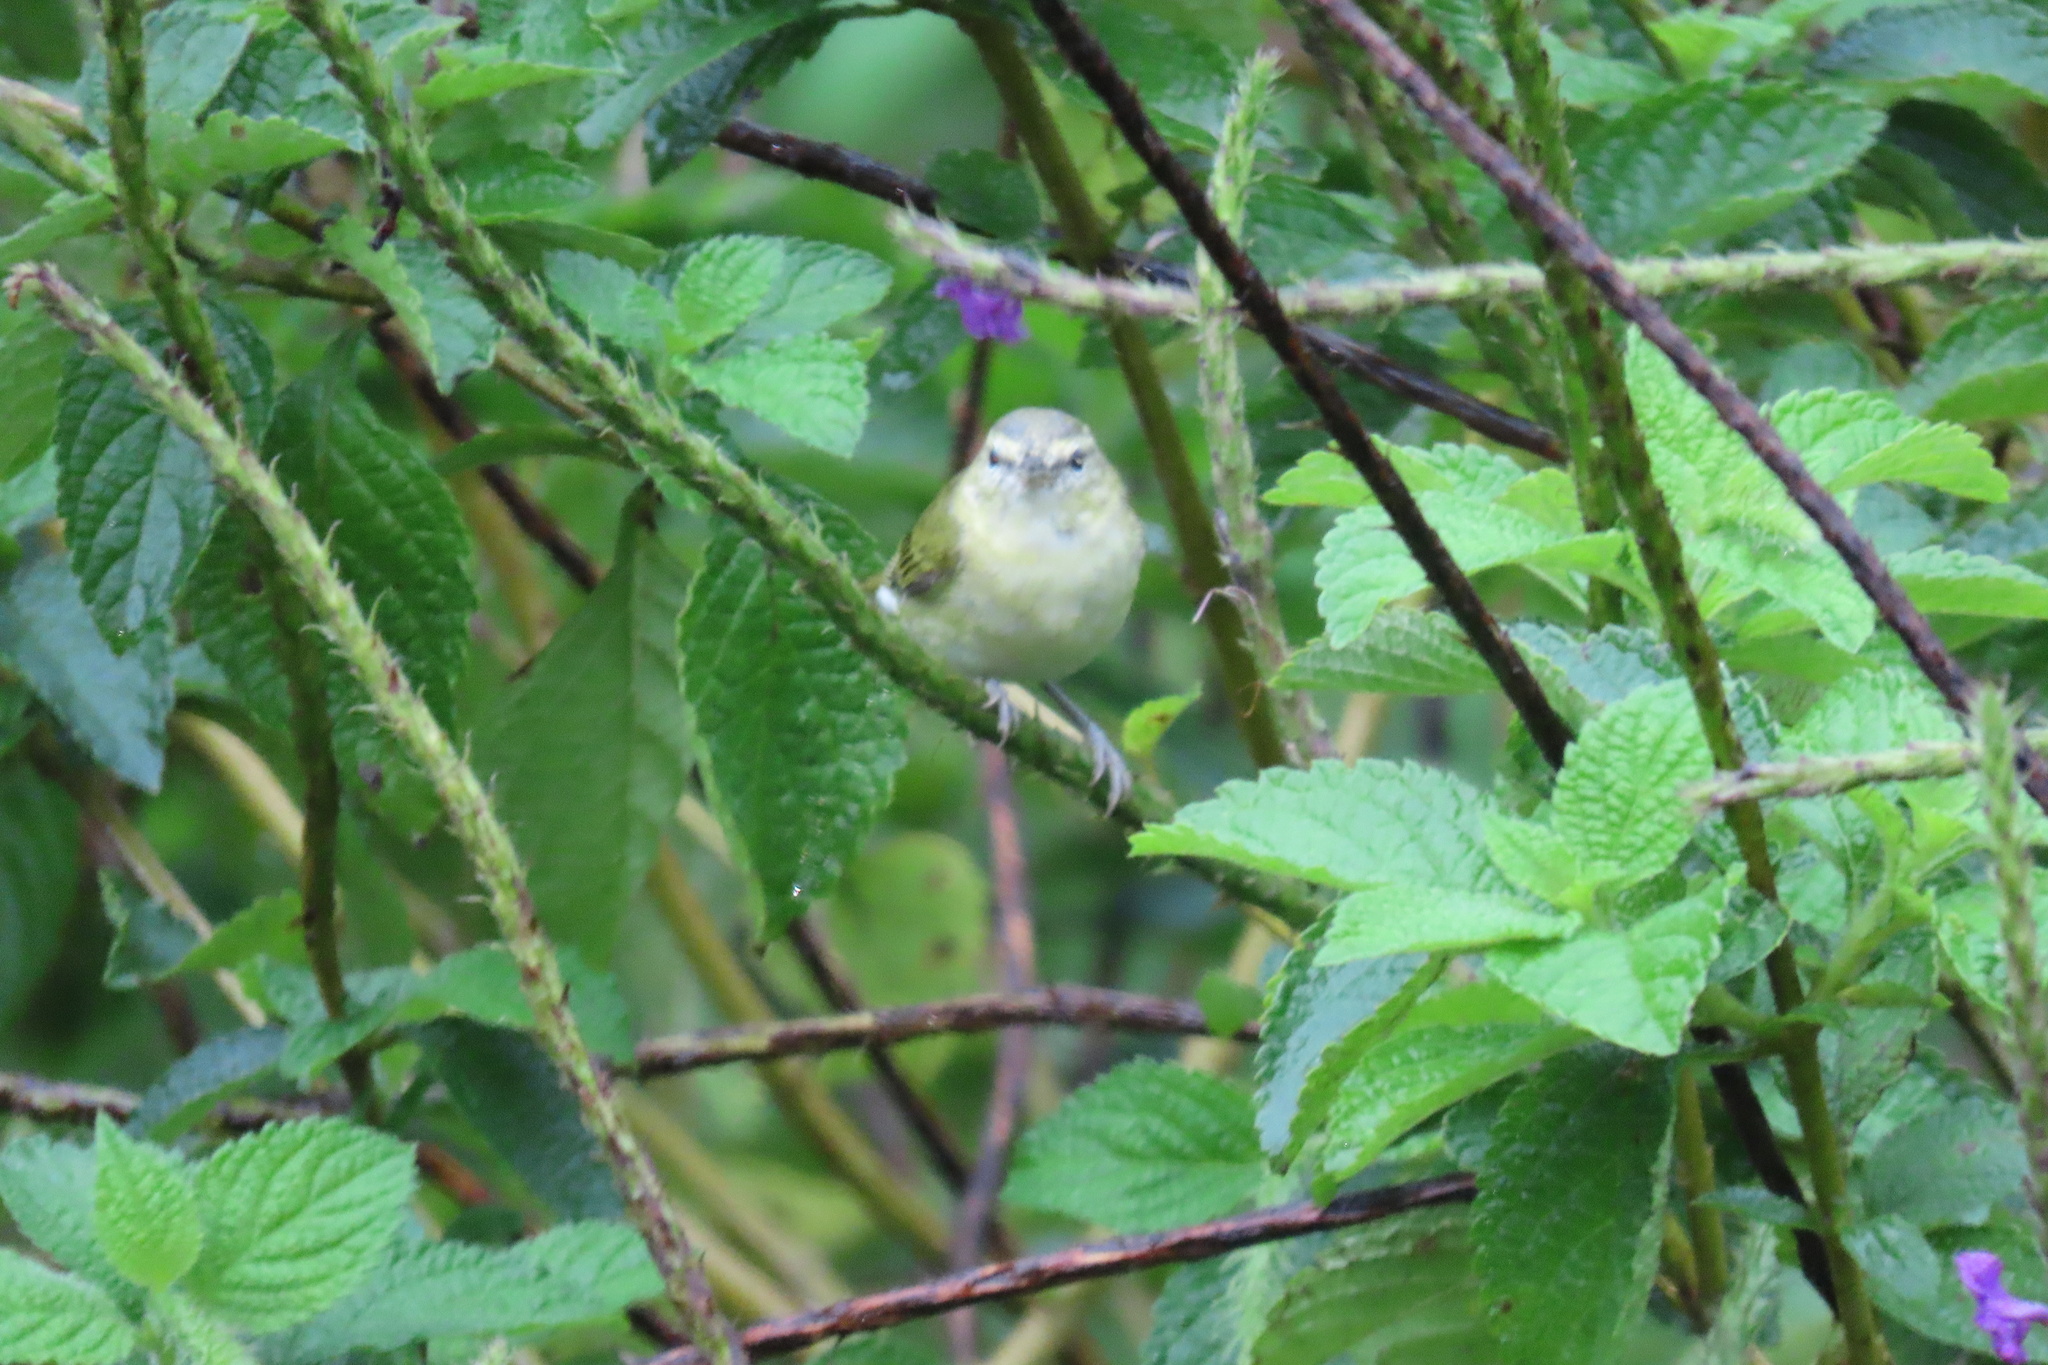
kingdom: Animalia
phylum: Chordata
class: Aves
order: Passeriformes
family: Parulidae
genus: Leiothlypis
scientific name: Leiothlypis peregrina
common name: Tennessee warbler
